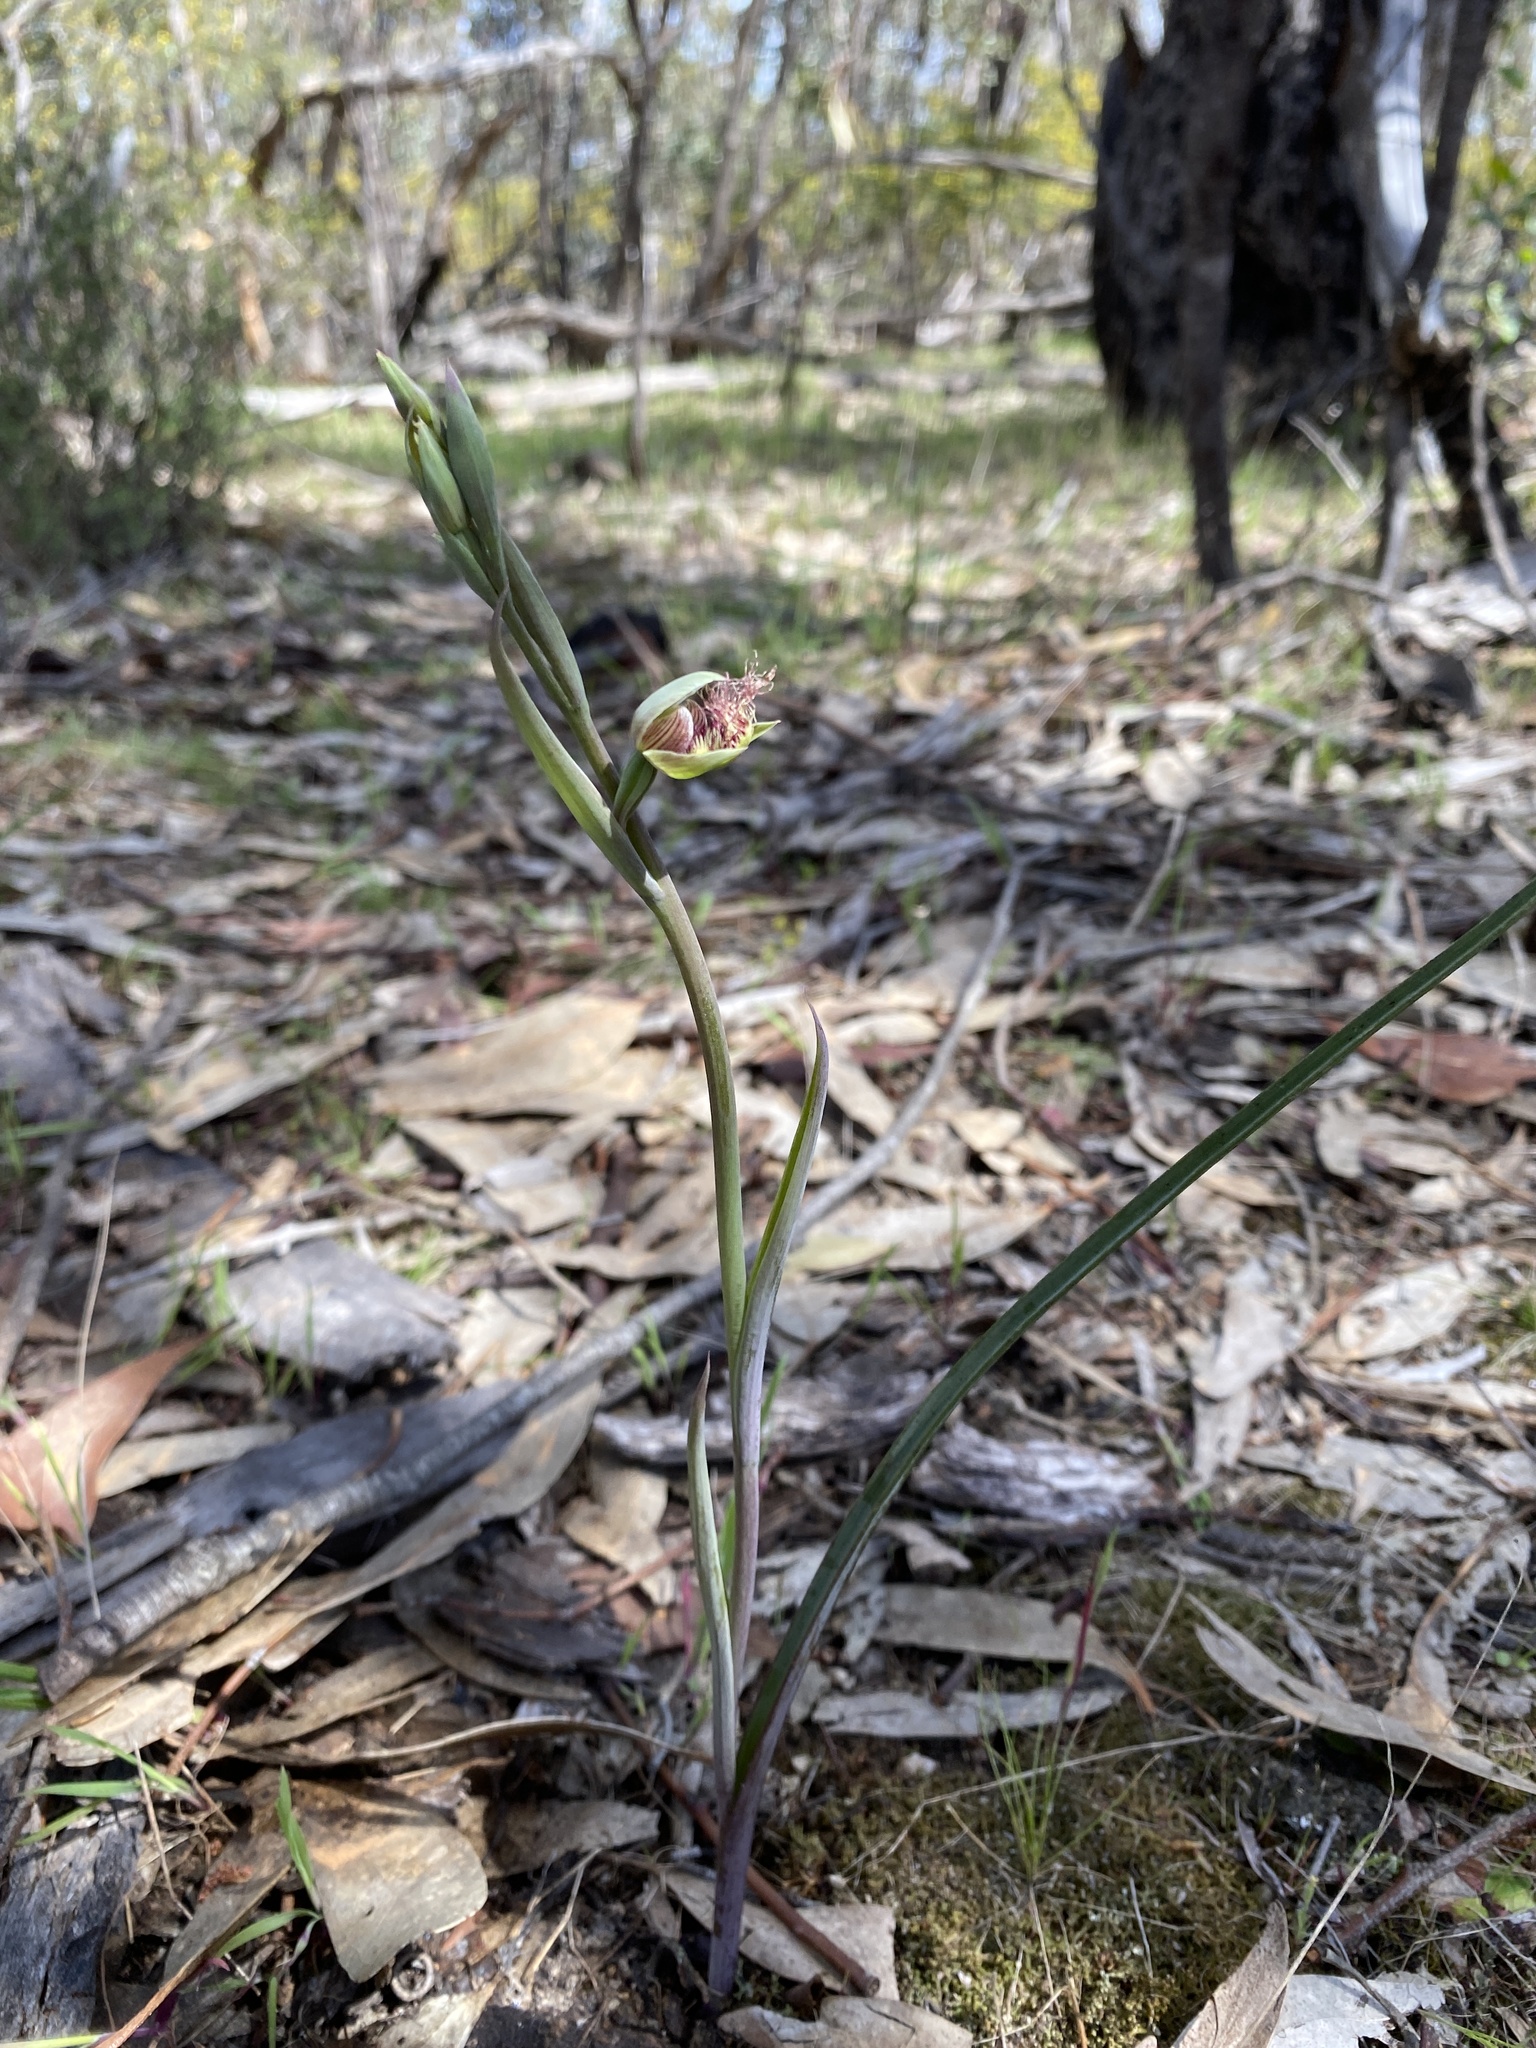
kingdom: Plantae
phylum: Tracheophyta
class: Liliopsida
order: Asparagales
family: Orchidaceae
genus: Calochilus
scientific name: Calochilus robertsonii
